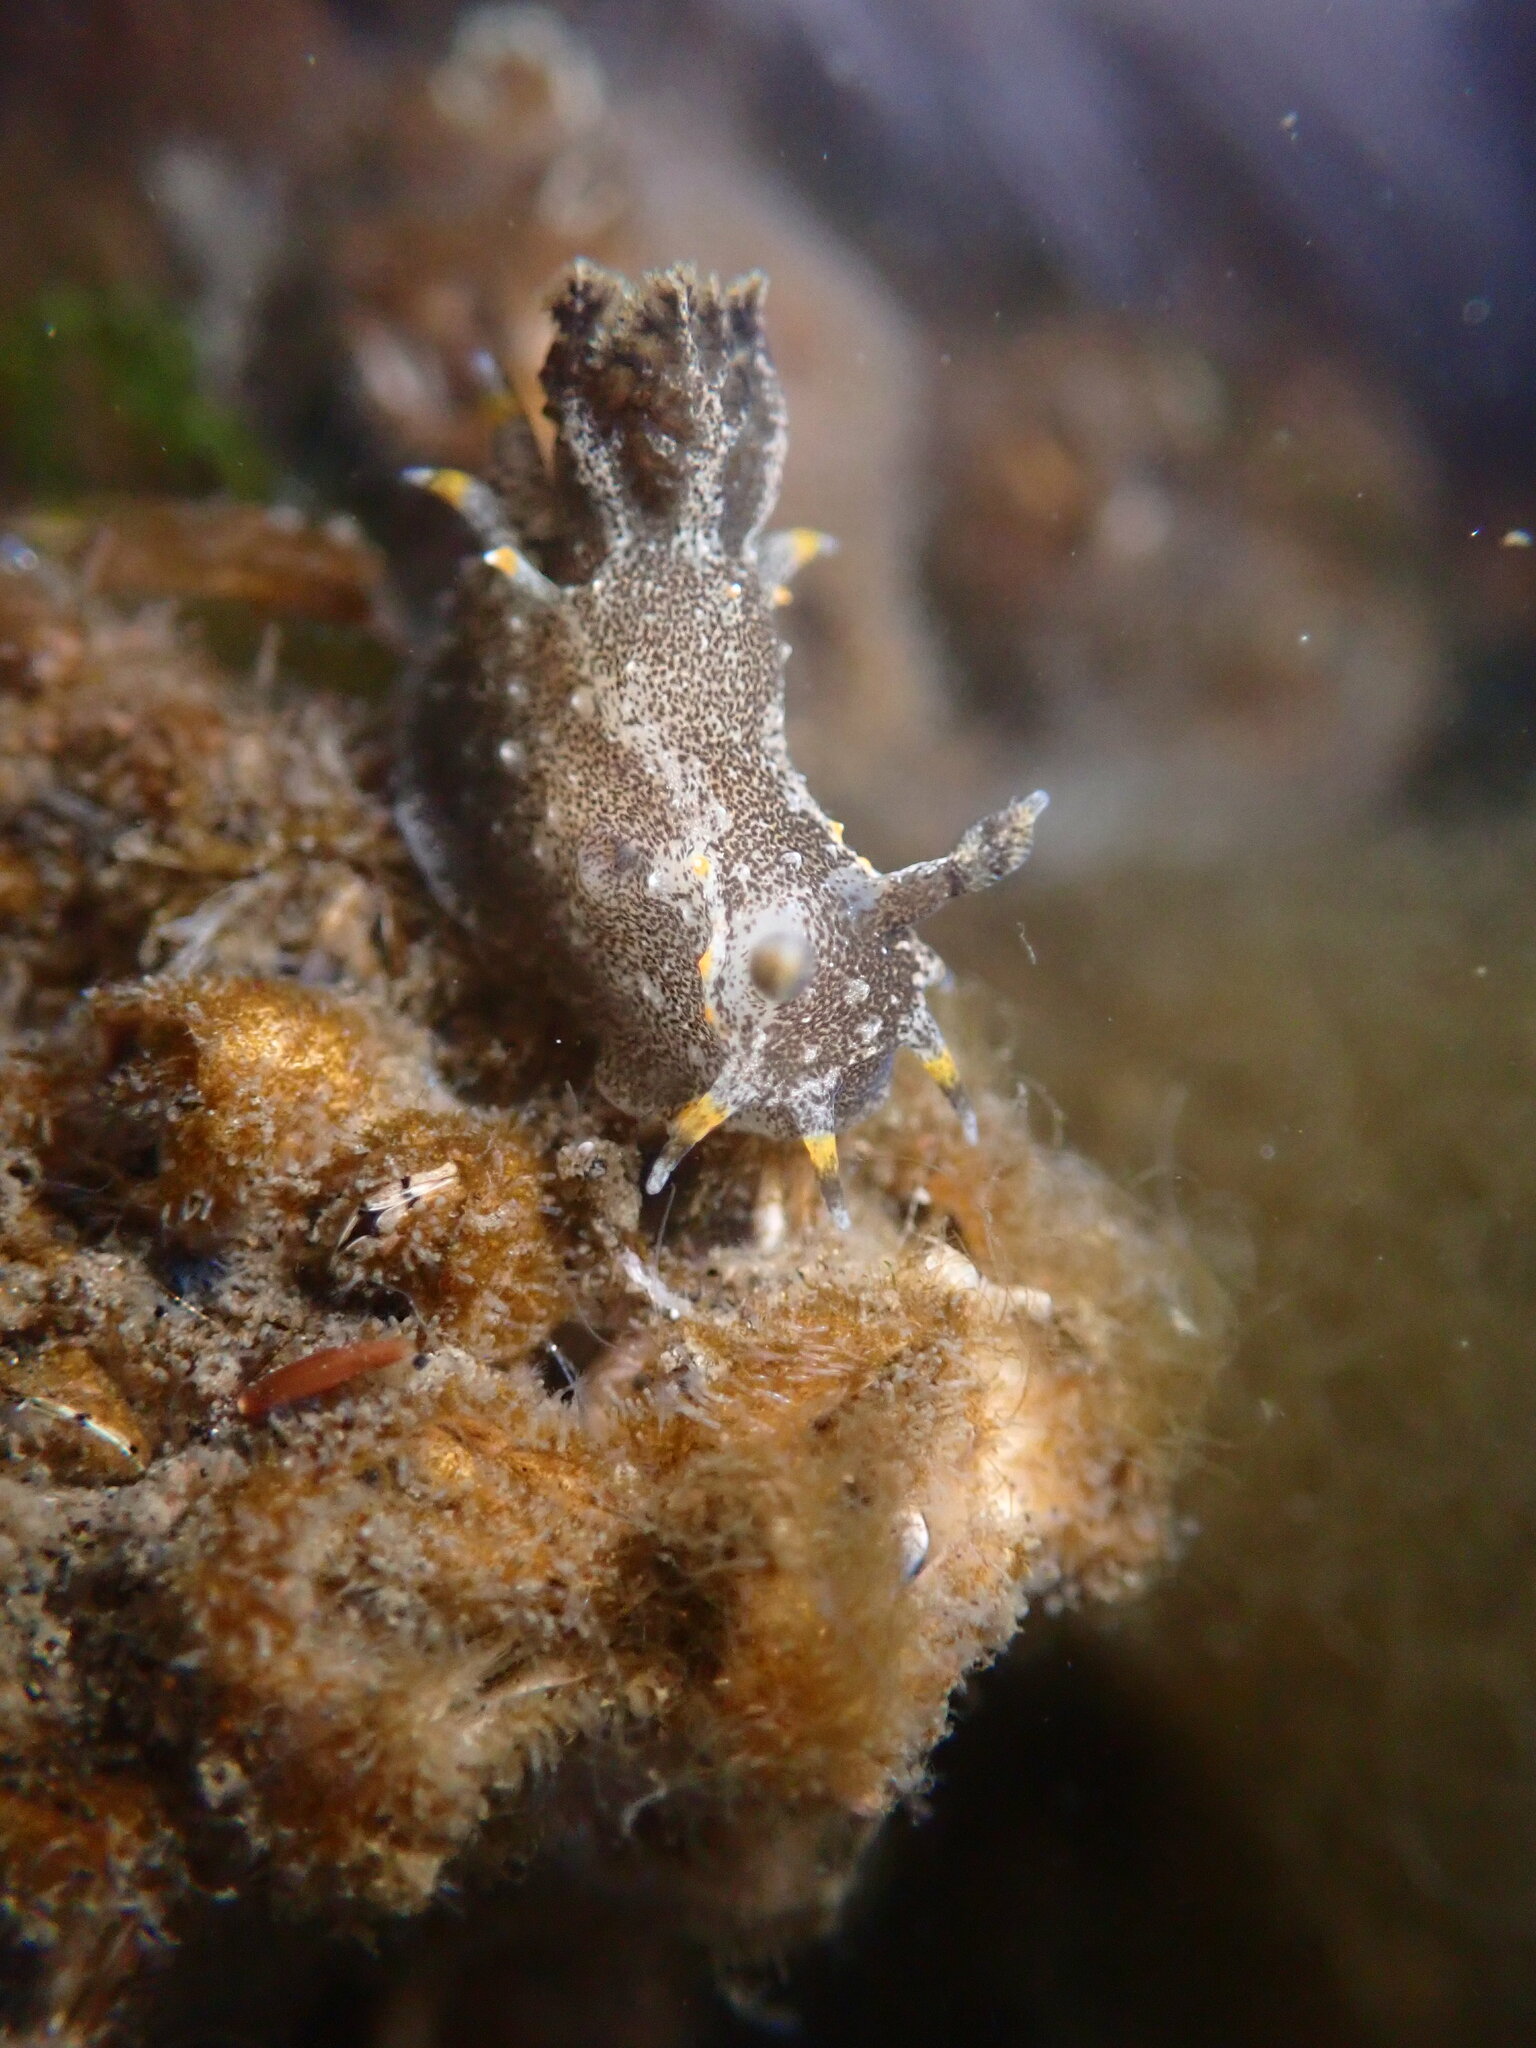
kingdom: Animalia
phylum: Mollusca
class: Gastropoda
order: Nudibranchia
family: Polyceridae
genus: Polycera
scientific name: Polycera hedgpethi
